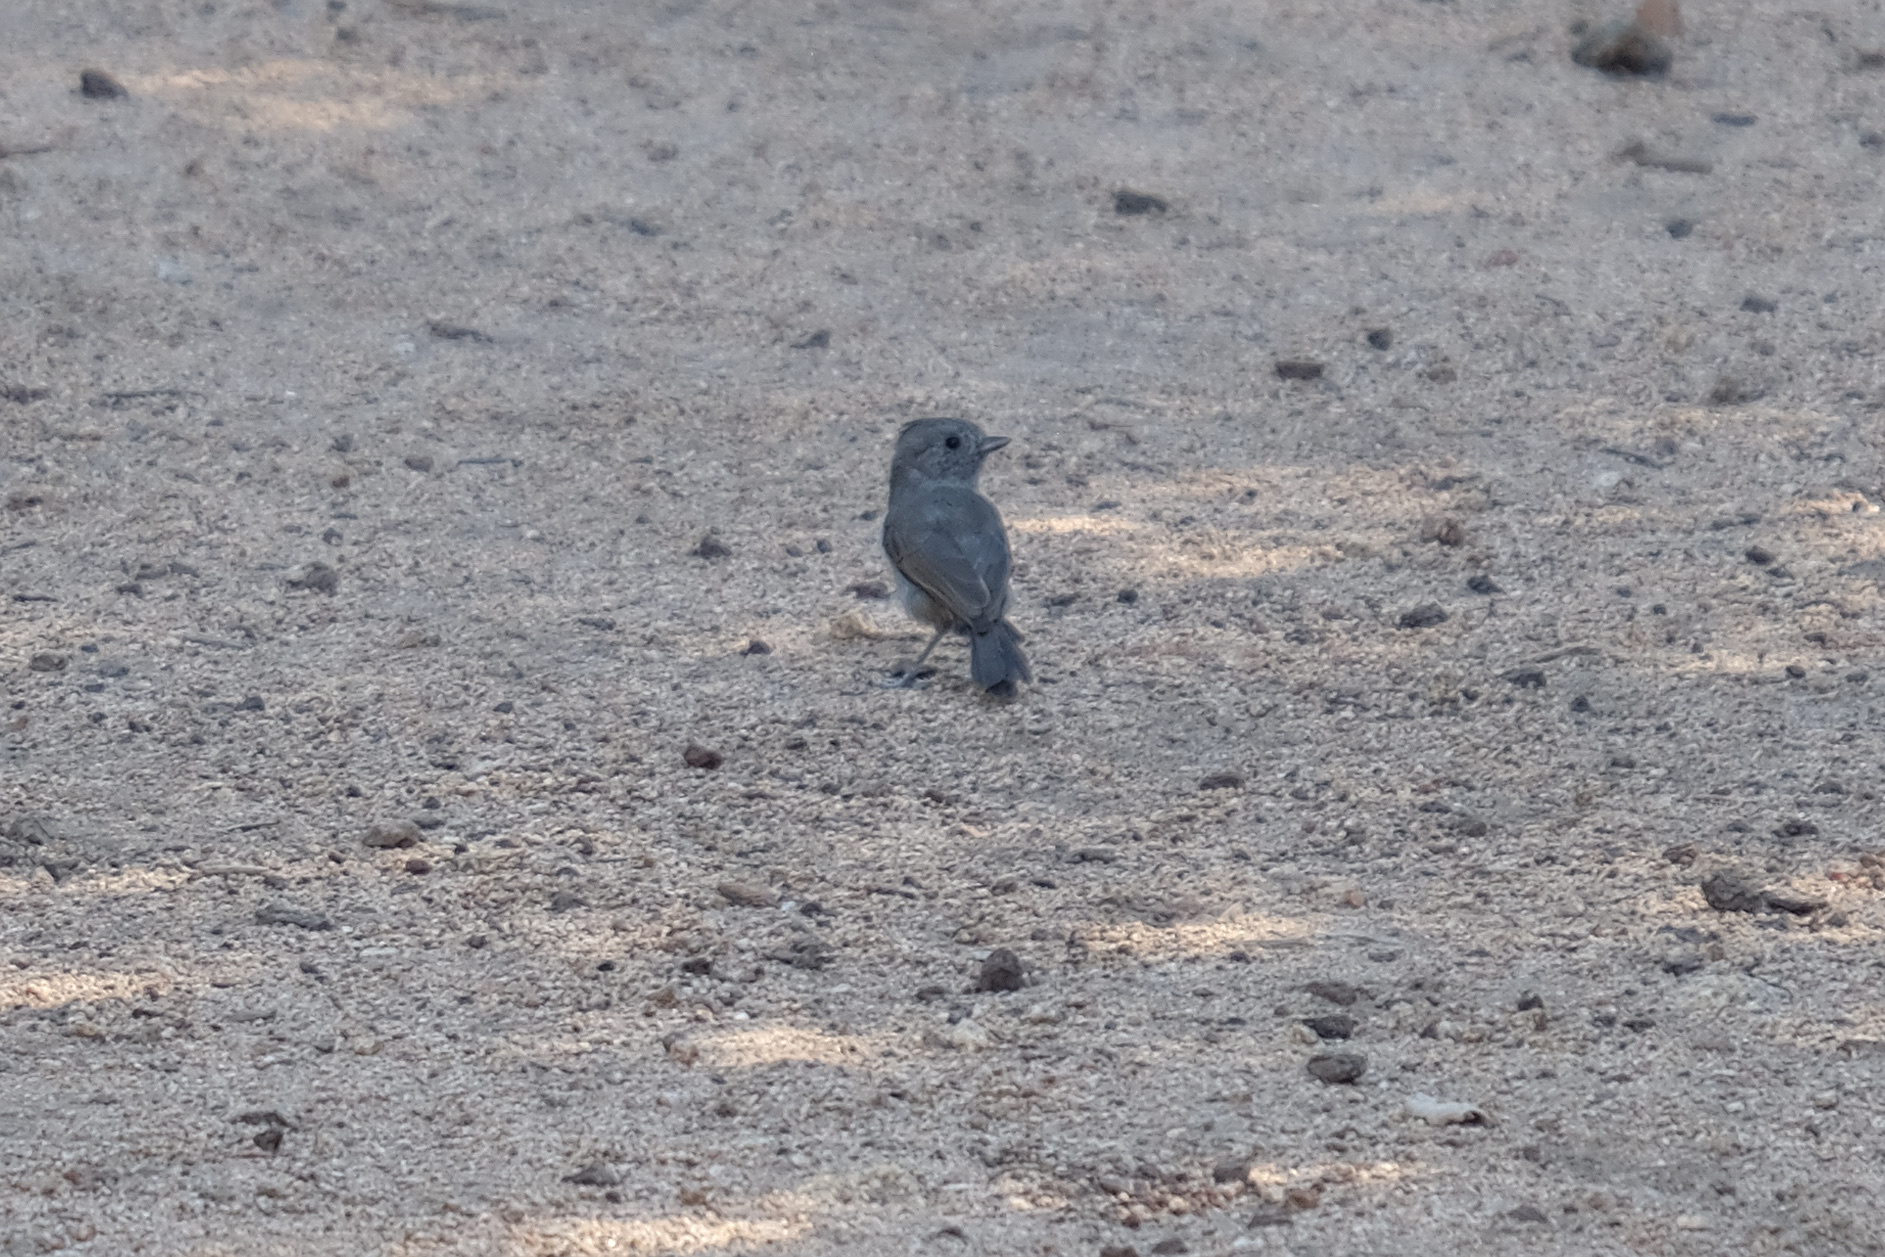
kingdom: Animalia
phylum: Chordata
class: Aves
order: Passeriformes
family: Paridae
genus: Baeolophus
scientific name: Baeolophus inornatus
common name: Oak titmouse
